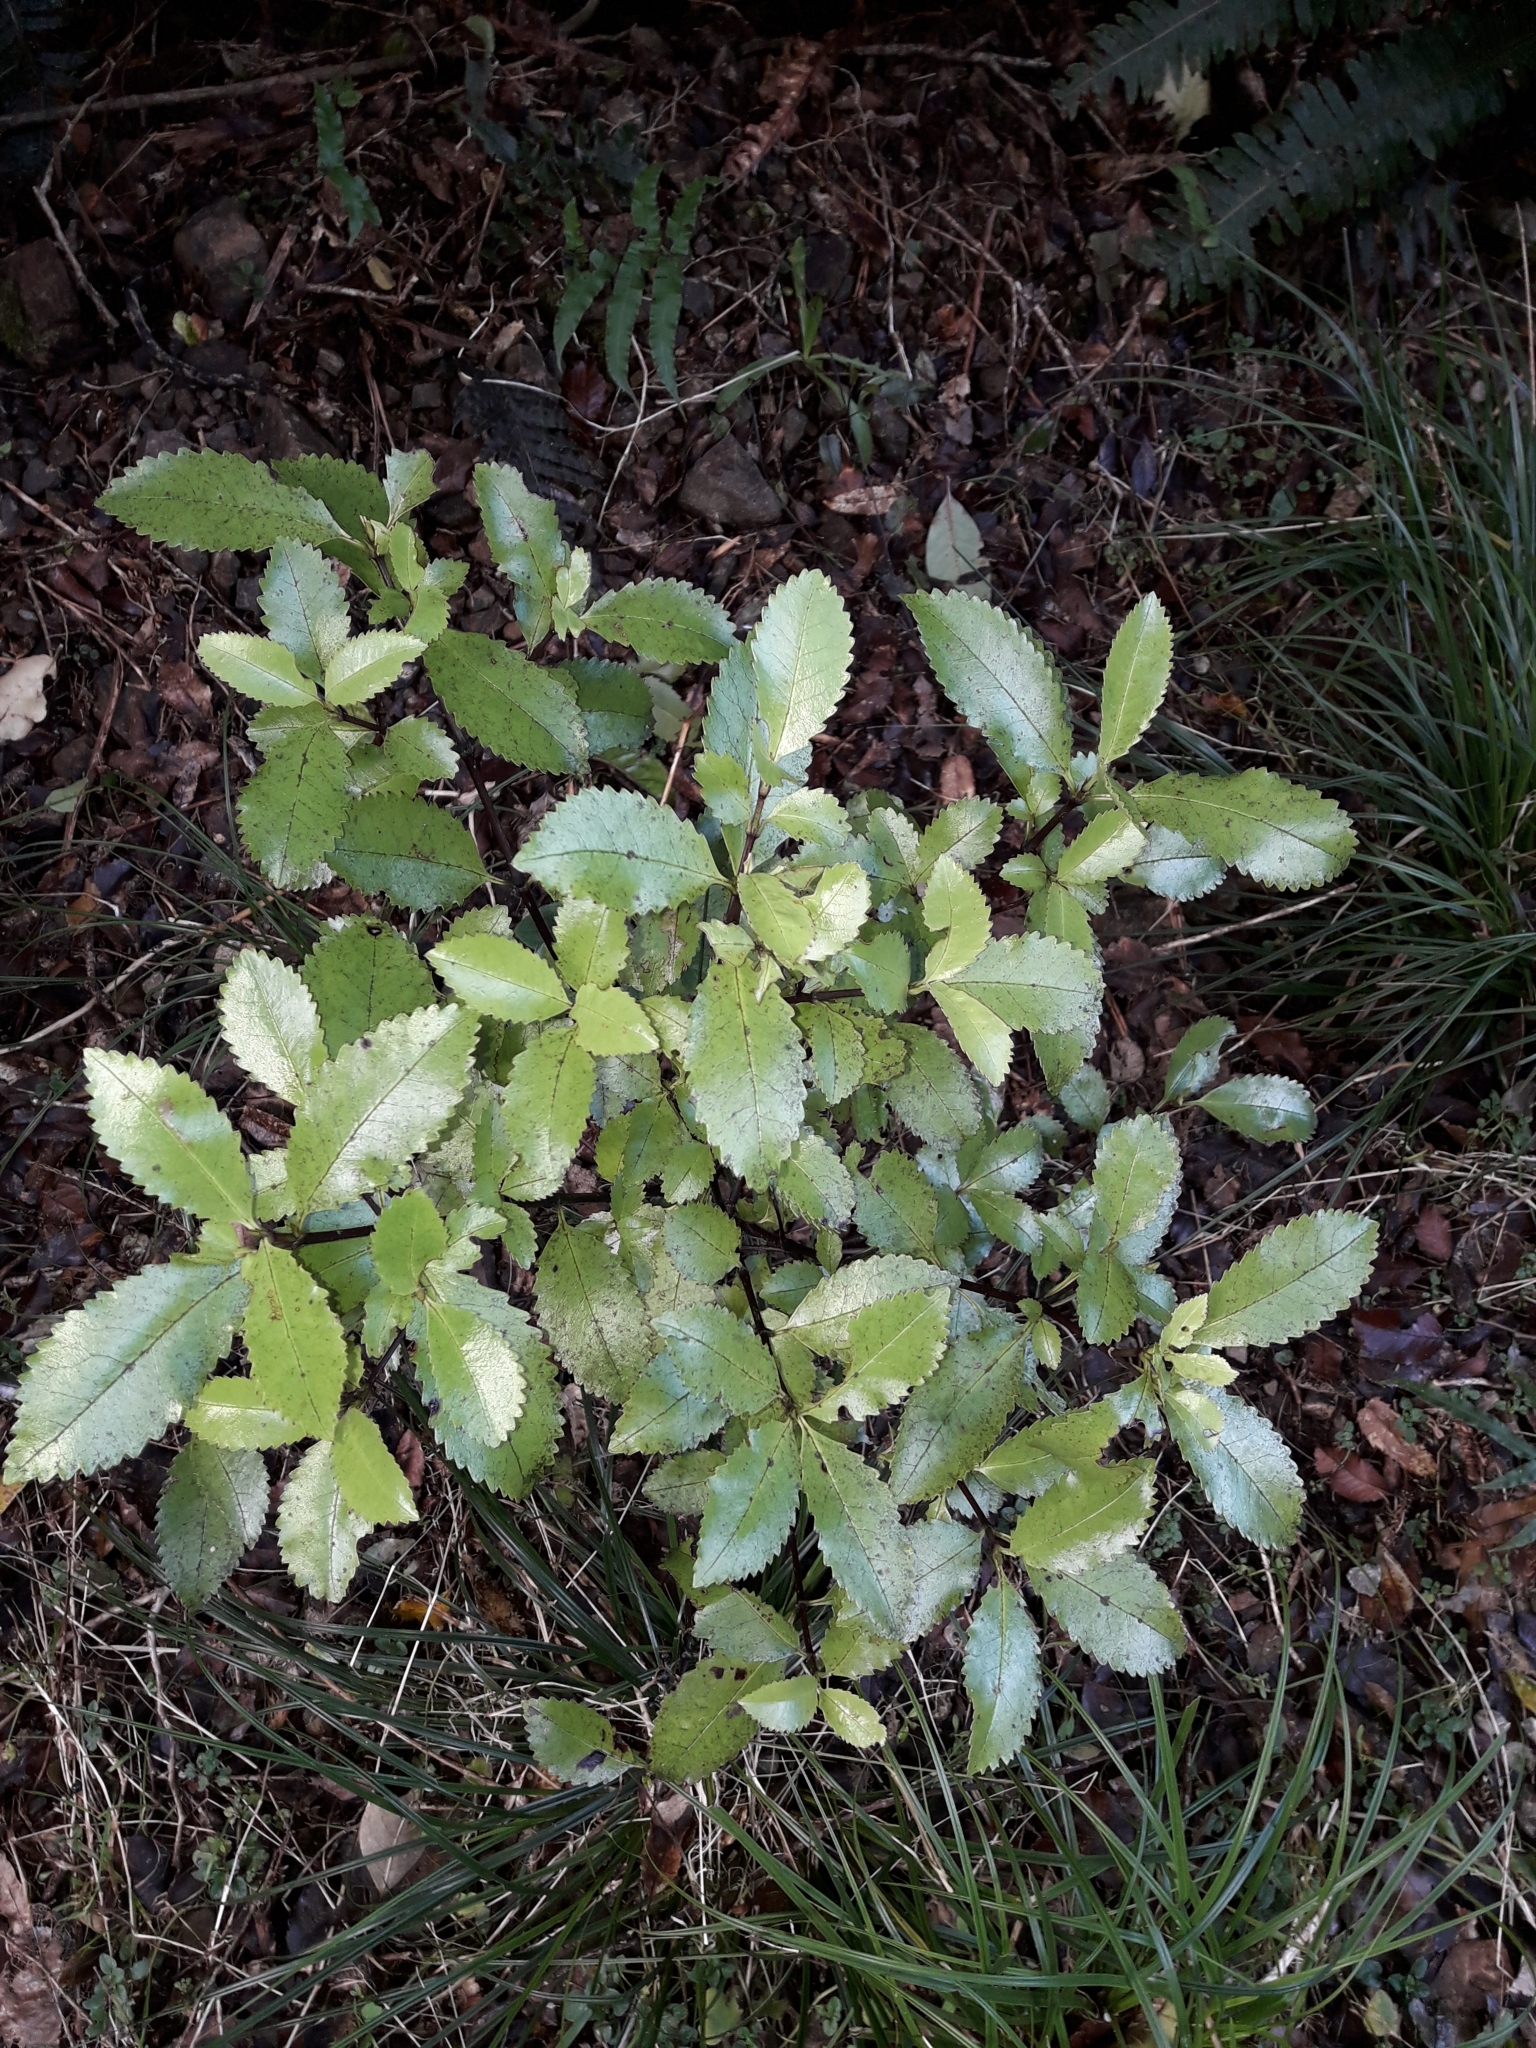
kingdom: Plantae
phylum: Tracheophyta
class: Magnoliopsida
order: Chloranthales
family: Chloranthaceae
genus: Ascarina
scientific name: Ascarina lucida
